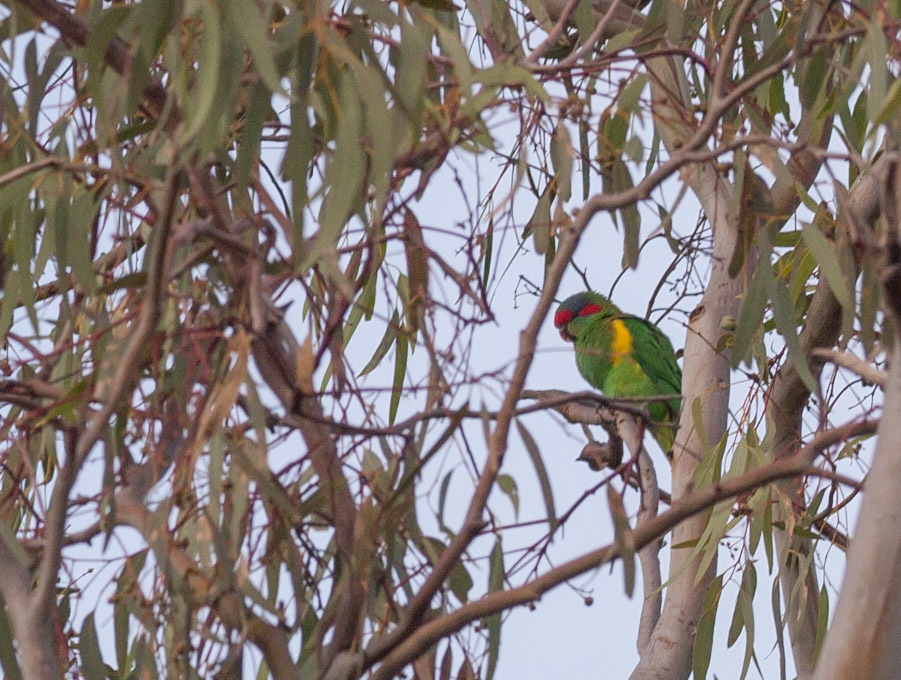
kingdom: Animalia
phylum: Chordata
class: Aves
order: Psittaciformes
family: Psittacidae
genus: Glossopsitta
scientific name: Glossopsitta concinna
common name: Musk lorikeet
